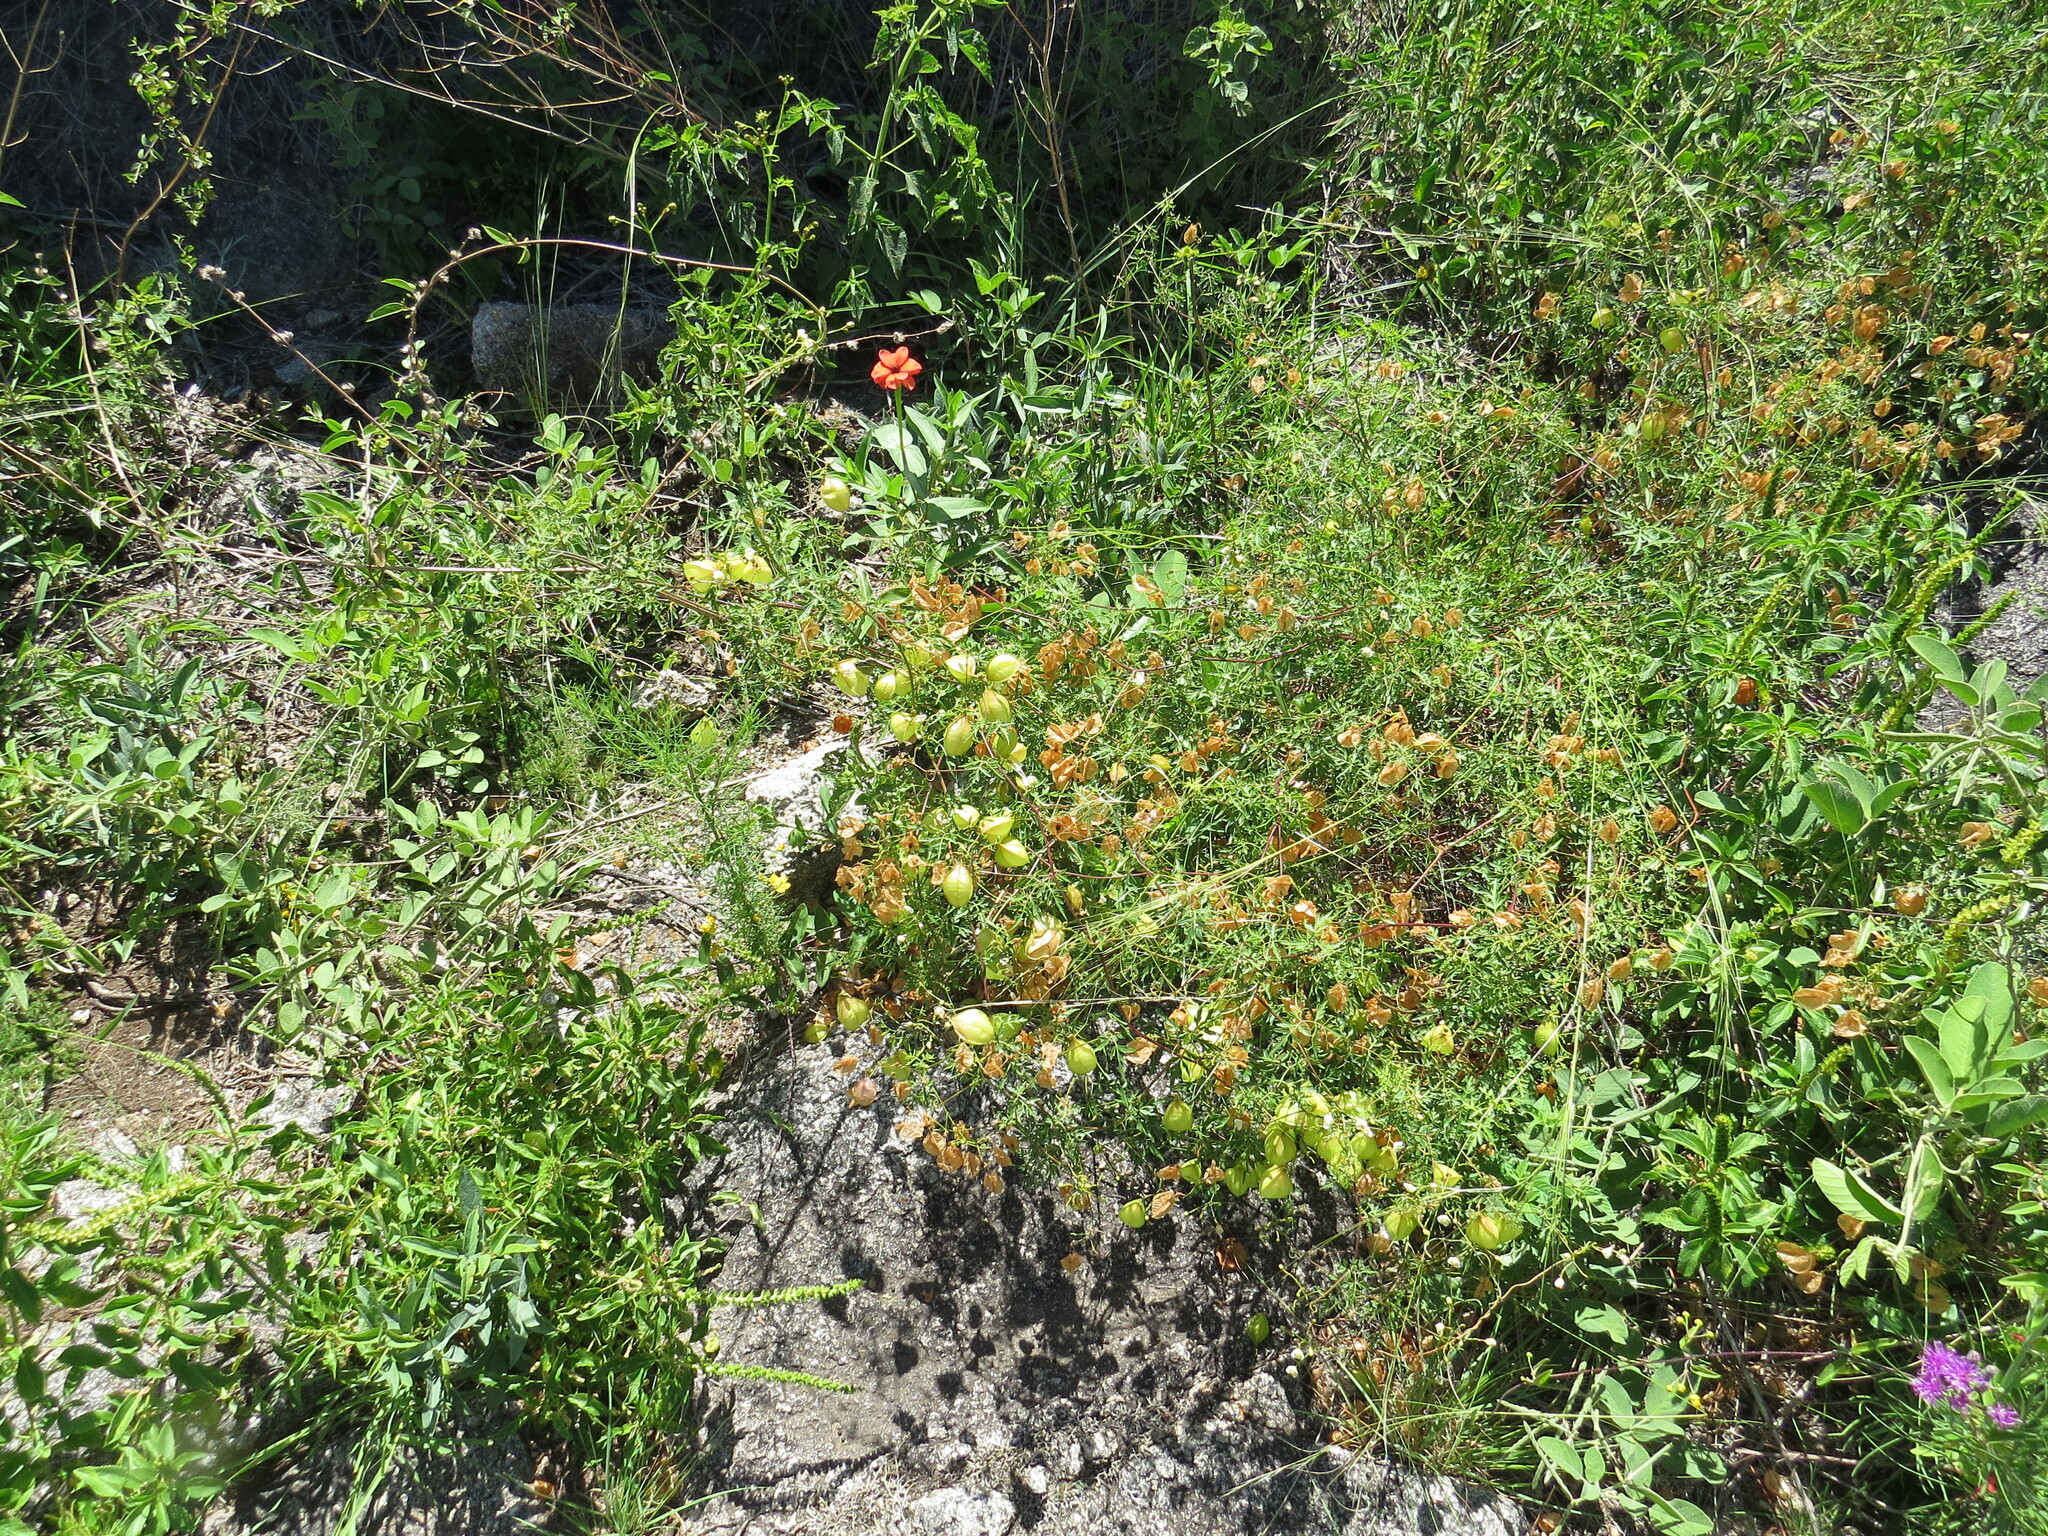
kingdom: Plantae
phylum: Tracheophyta
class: Magnoliopsida
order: Sapindales
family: Sapindaceae
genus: Cardiospermum
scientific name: Cardiospermum halicacabum
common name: Balloon vine
